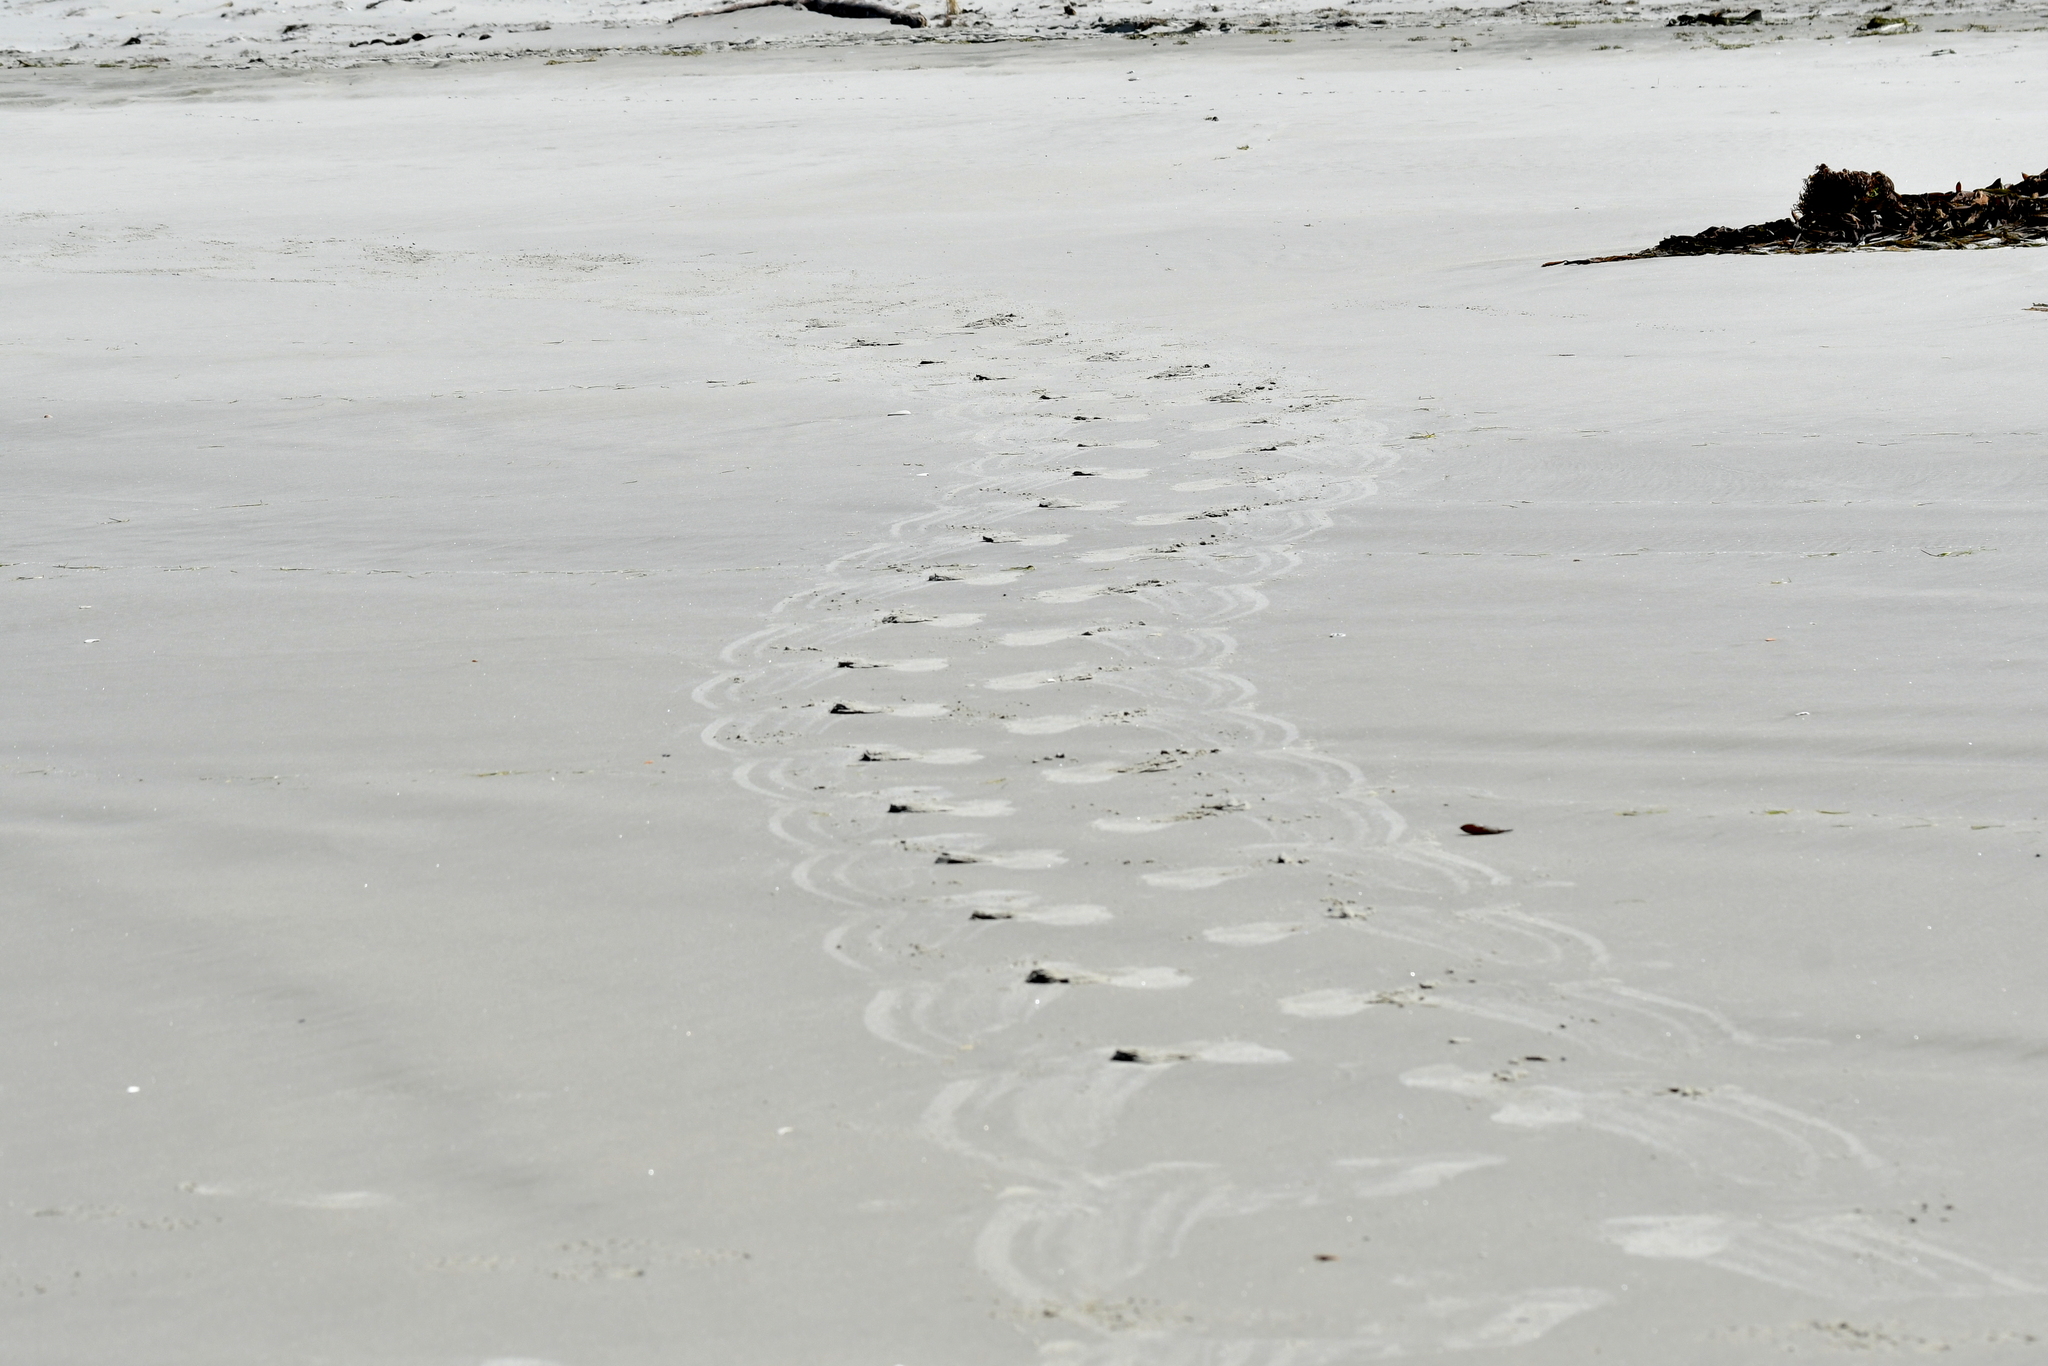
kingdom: Animalia
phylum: Chordata
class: Mammalia
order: Carnivora
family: Otariidae
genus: Phocarctos
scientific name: Phocarctos hookeri
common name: New zealand sea lion
